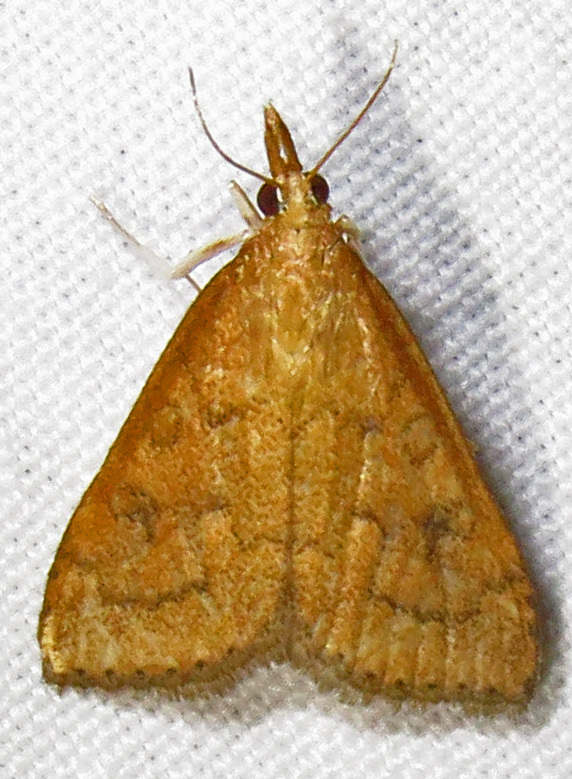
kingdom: Animalia
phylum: Arthropoda
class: Insecta
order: Lepidoptera
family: Crambidae
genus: Udea
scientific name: Udea rubigalis
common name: Celery leaftier moth
